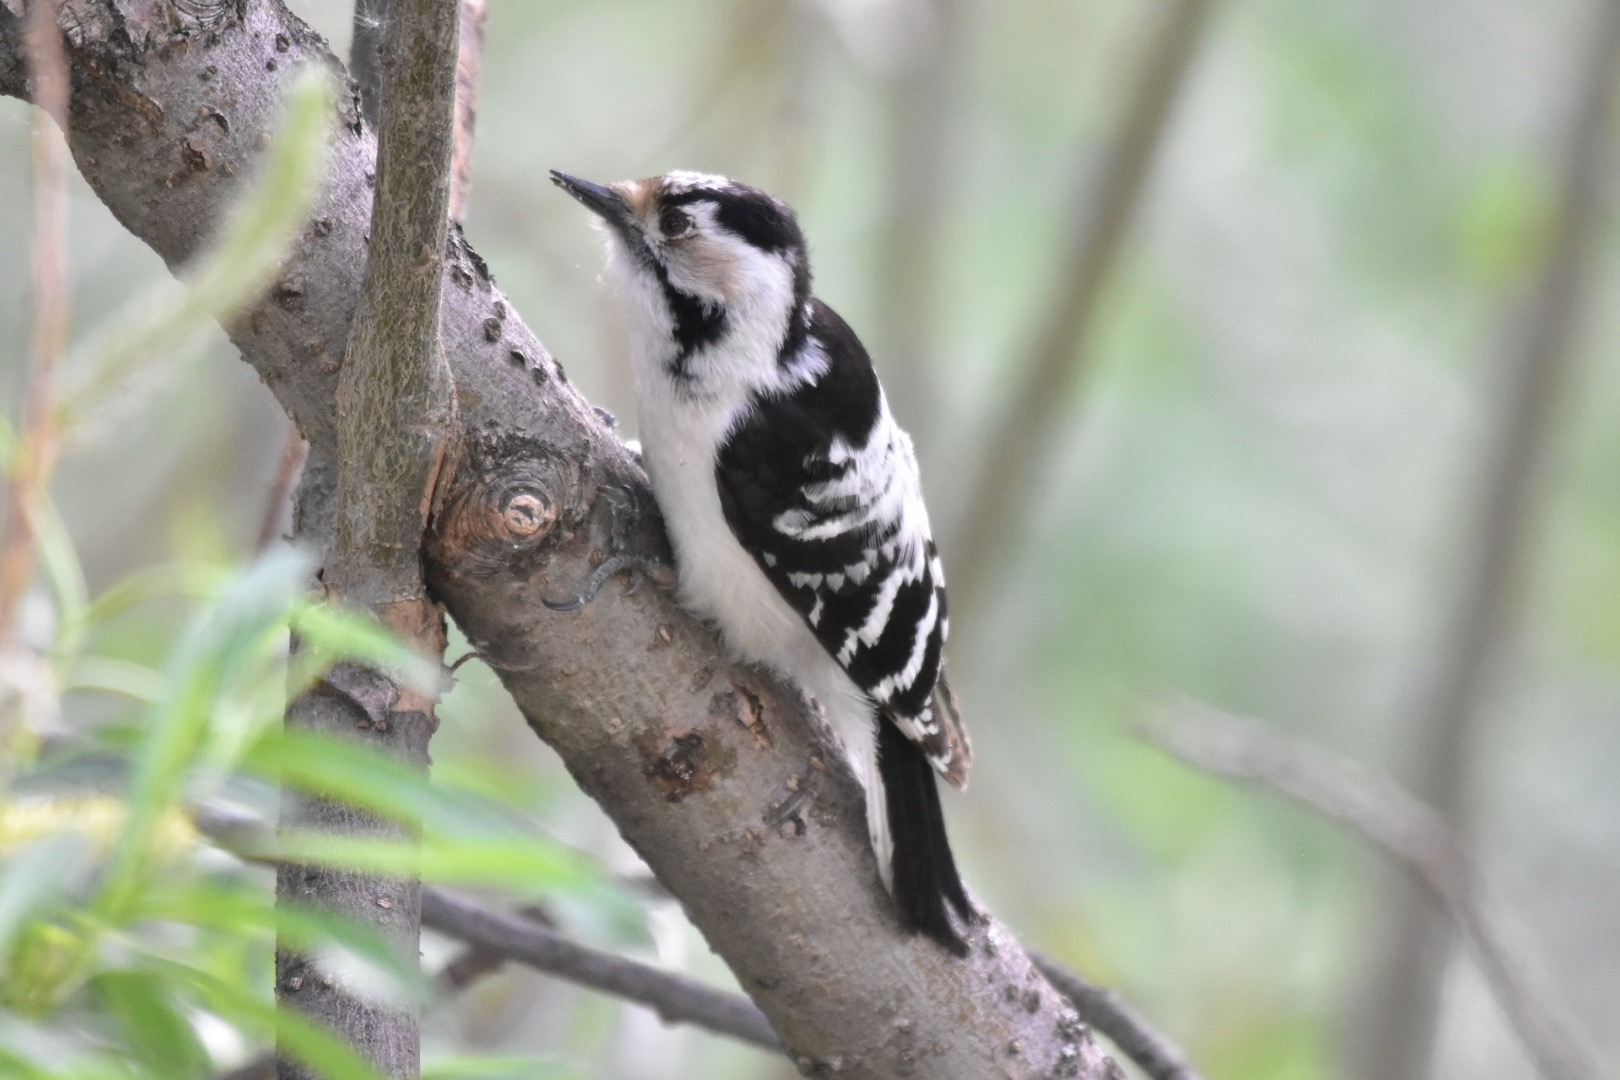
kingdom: Animalia
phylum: Chordata
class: Aves
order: Piciformes
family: Picidae
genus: Dryobates
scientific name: Dryobates minor
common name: Lesser spotted woodpecker
